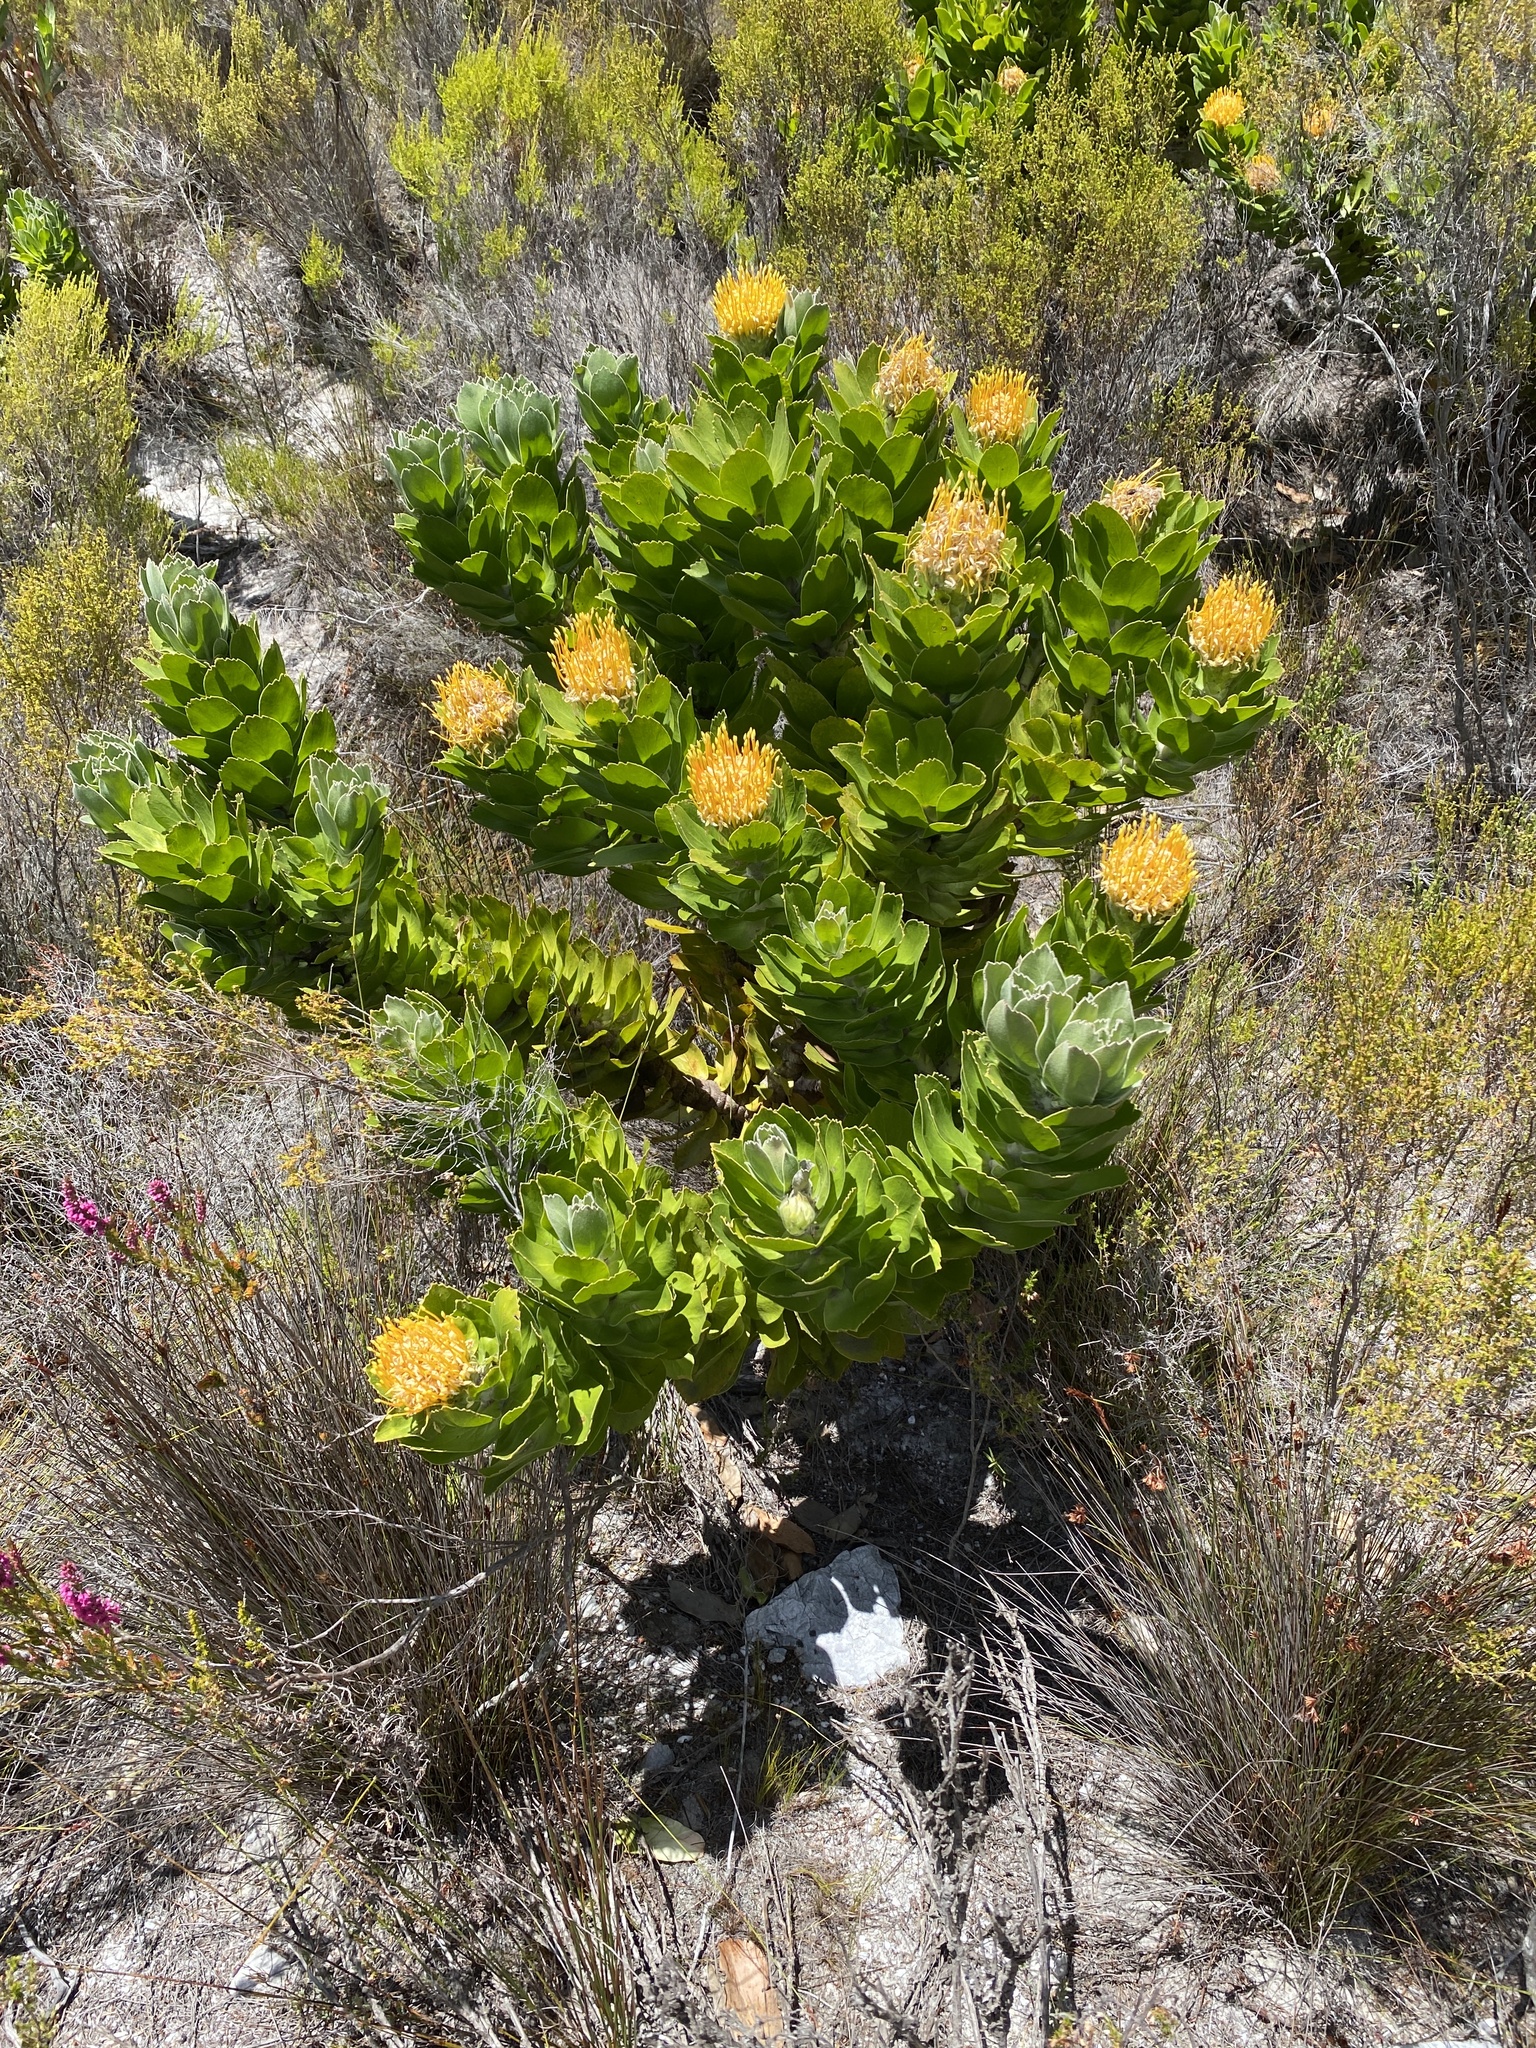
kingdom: Plantae
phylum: Tracheophyta
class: Magnoliopsida
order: Proteales
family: Proteaceae
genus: Leucospermum
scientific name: Leucospermum conocarpodendron
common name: Tree pincushion
